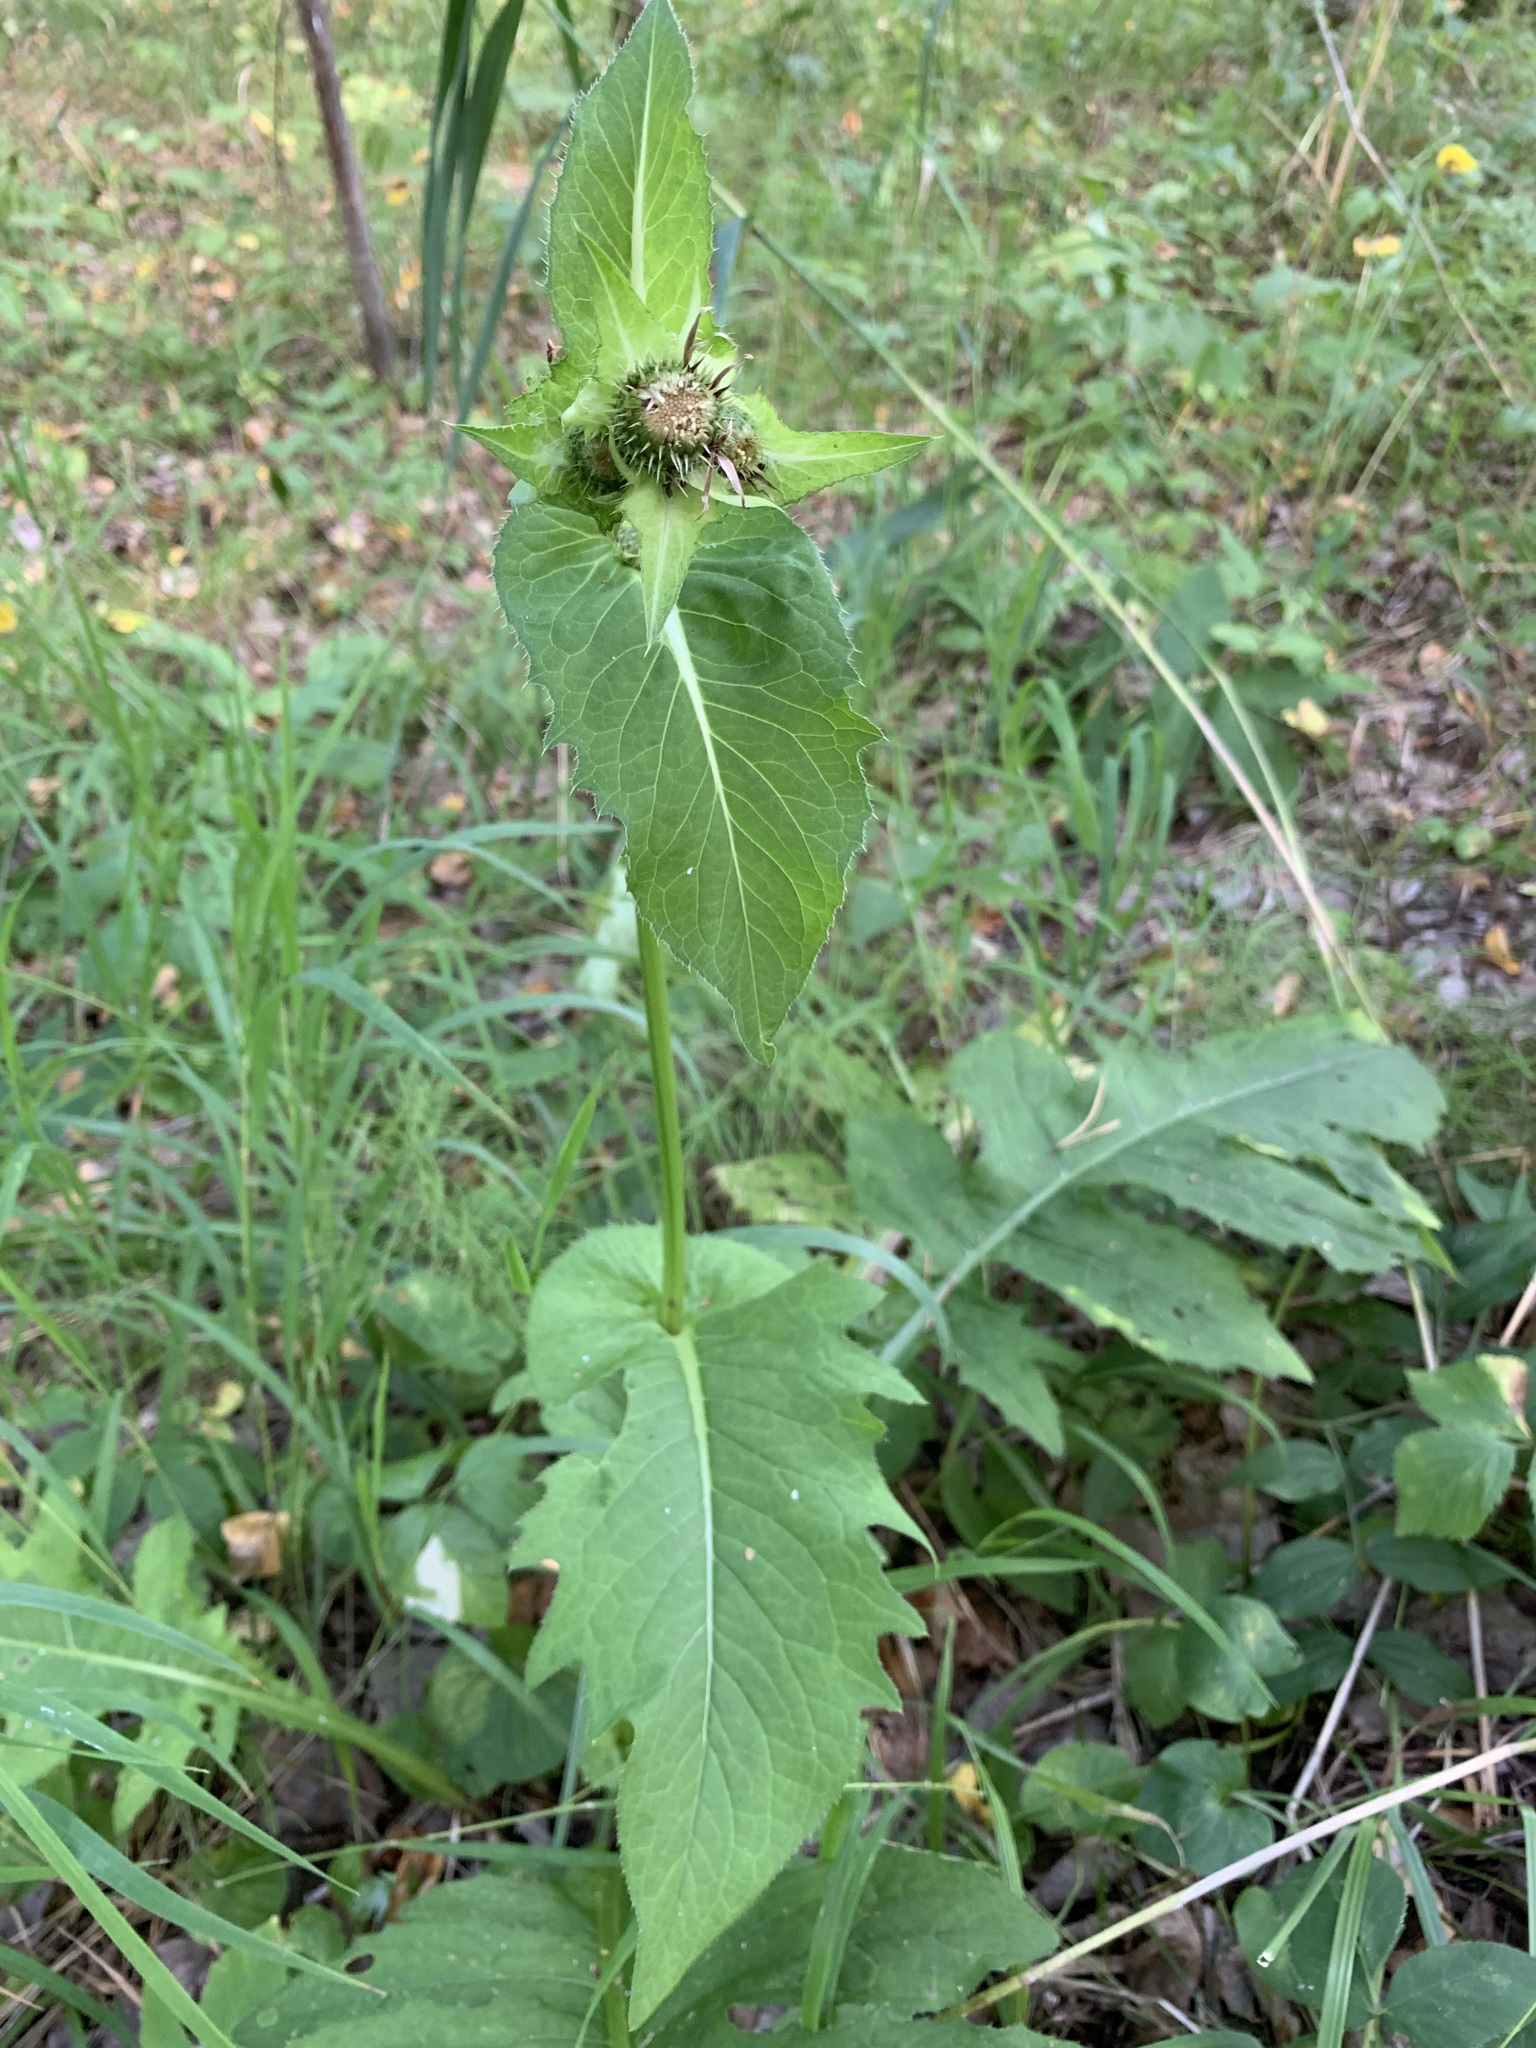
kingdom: Plantae
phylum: Tracheophyta
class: Magnoliopsida
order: Asterales
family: Asteraceae
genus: Cirsium
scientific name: Cirsium oleraceum
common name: Cabbage thistle
